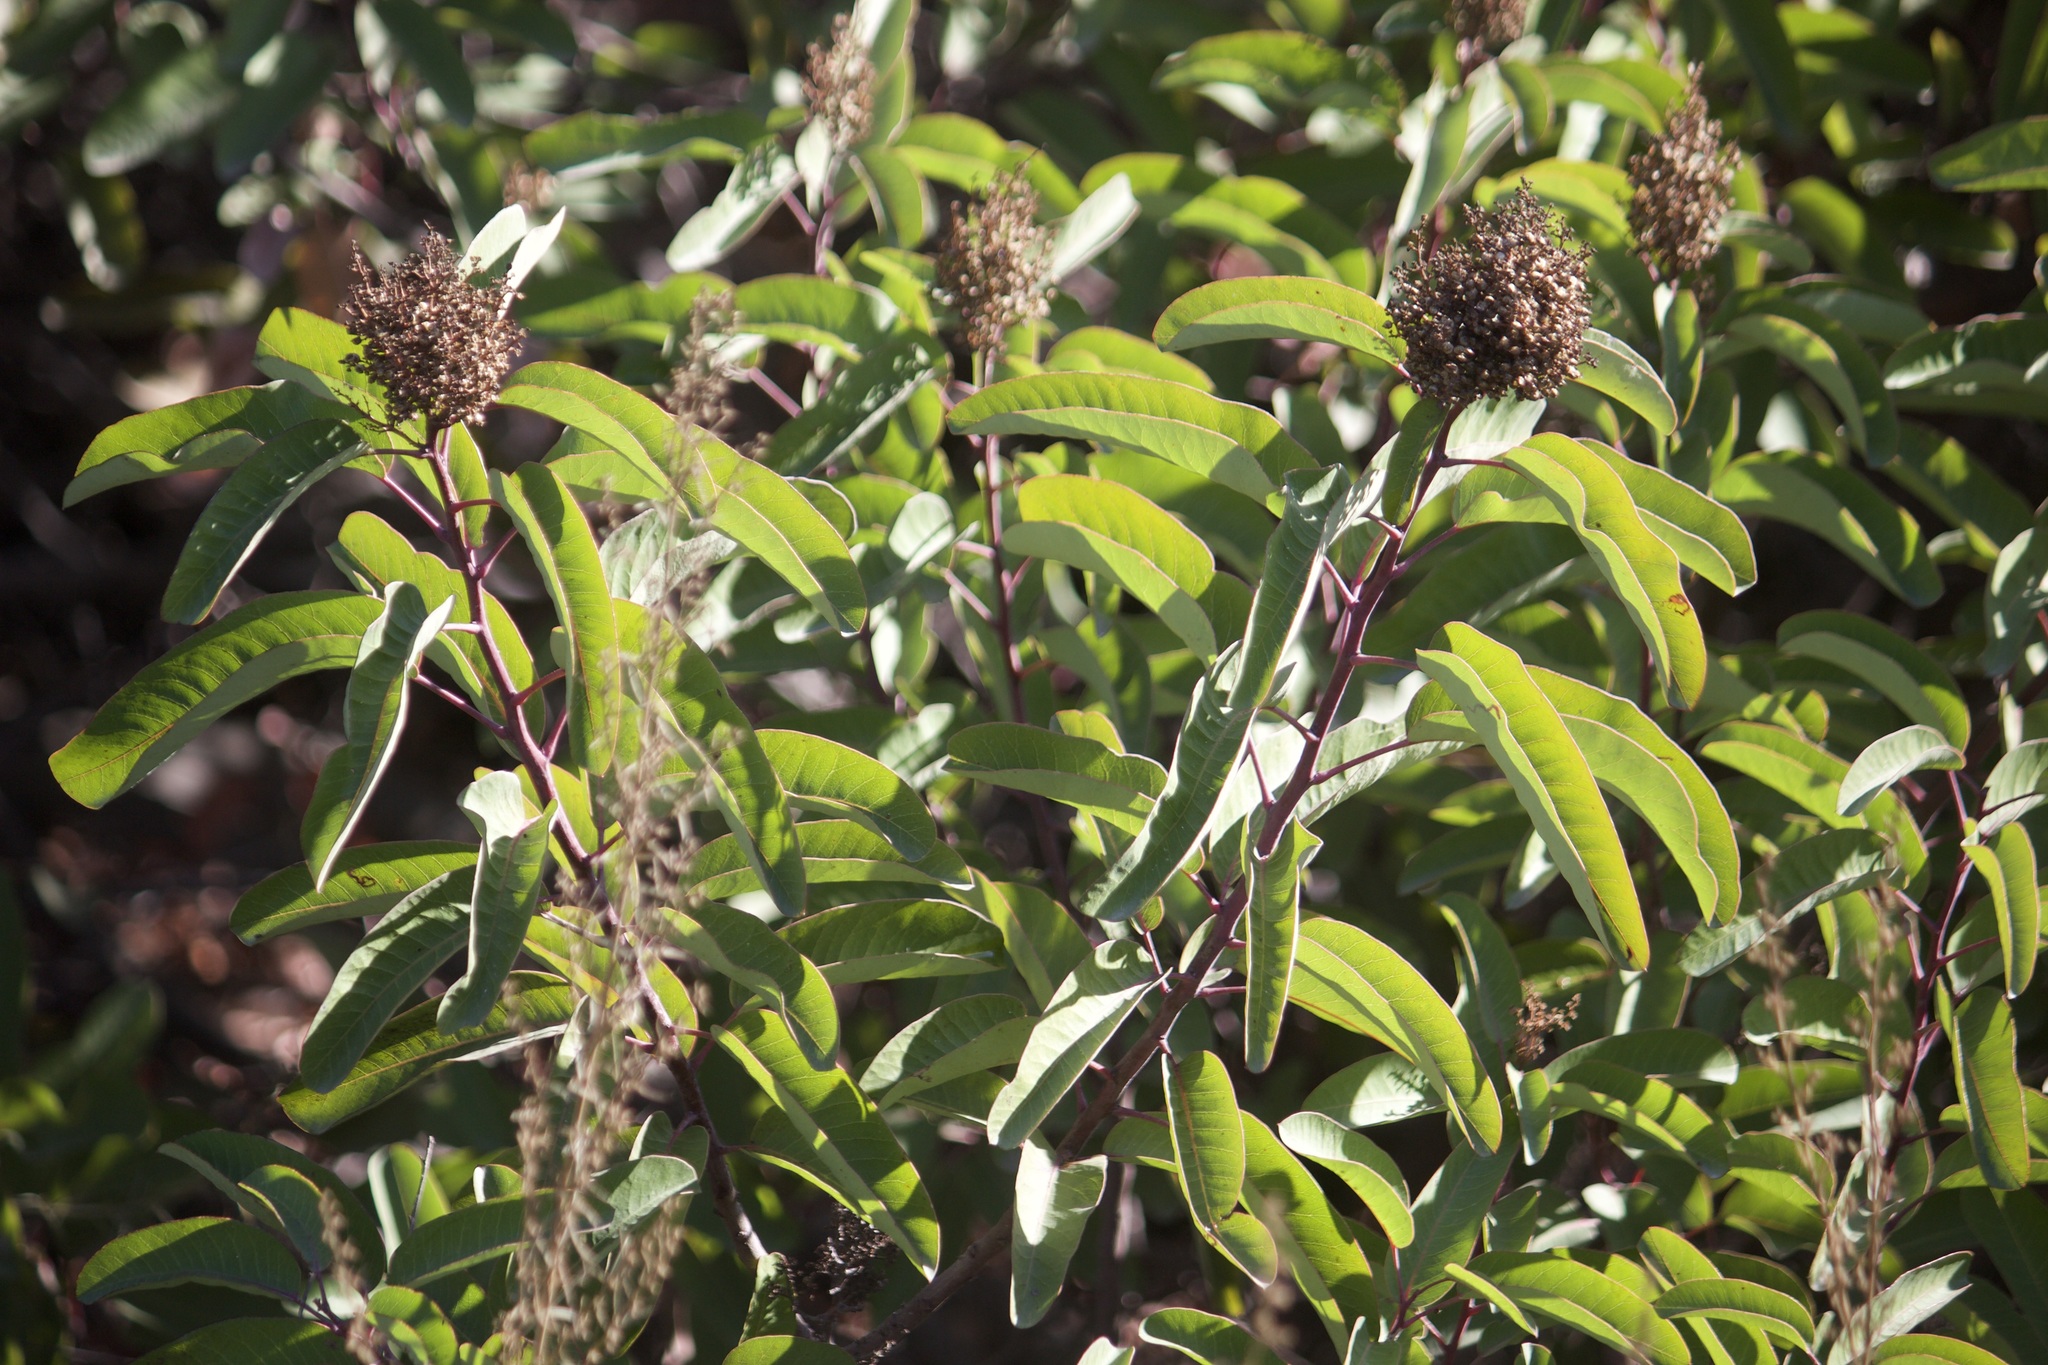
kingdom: Plantae
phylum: Tracheophyta
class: Magnoliopsida
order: Sapindales
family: Anacardiaceae
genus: Malosma
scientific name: Malosma laurina
